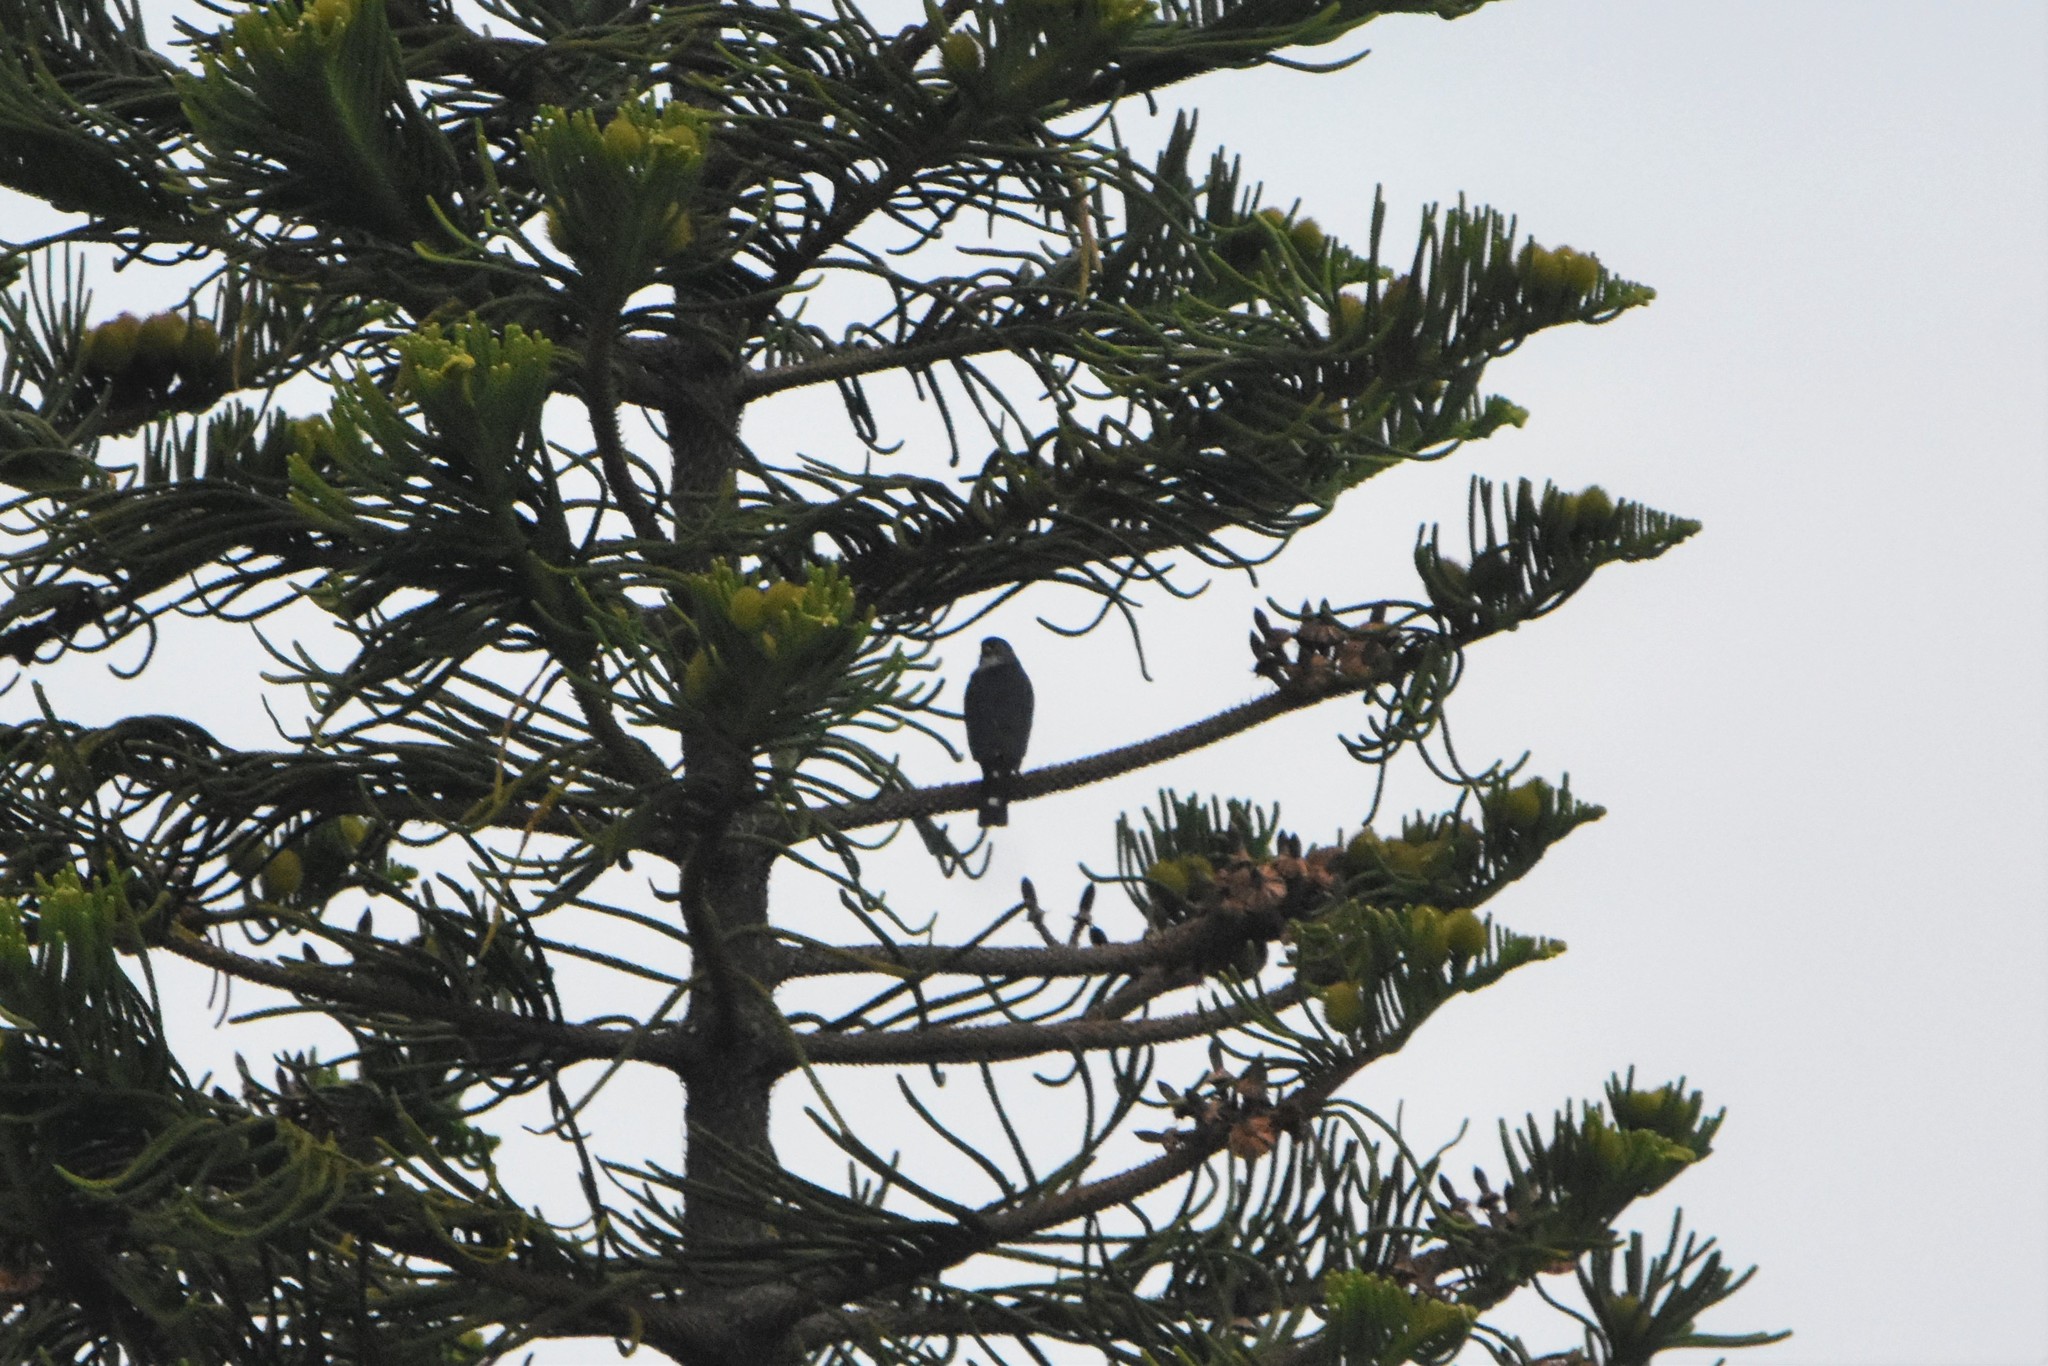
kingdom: Animalia
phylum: Chordata
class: Aves
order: Accipitriformes
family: Accipitridae
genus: Accipiter
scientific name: Accipiter minullus
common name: Little sparrowhawk
